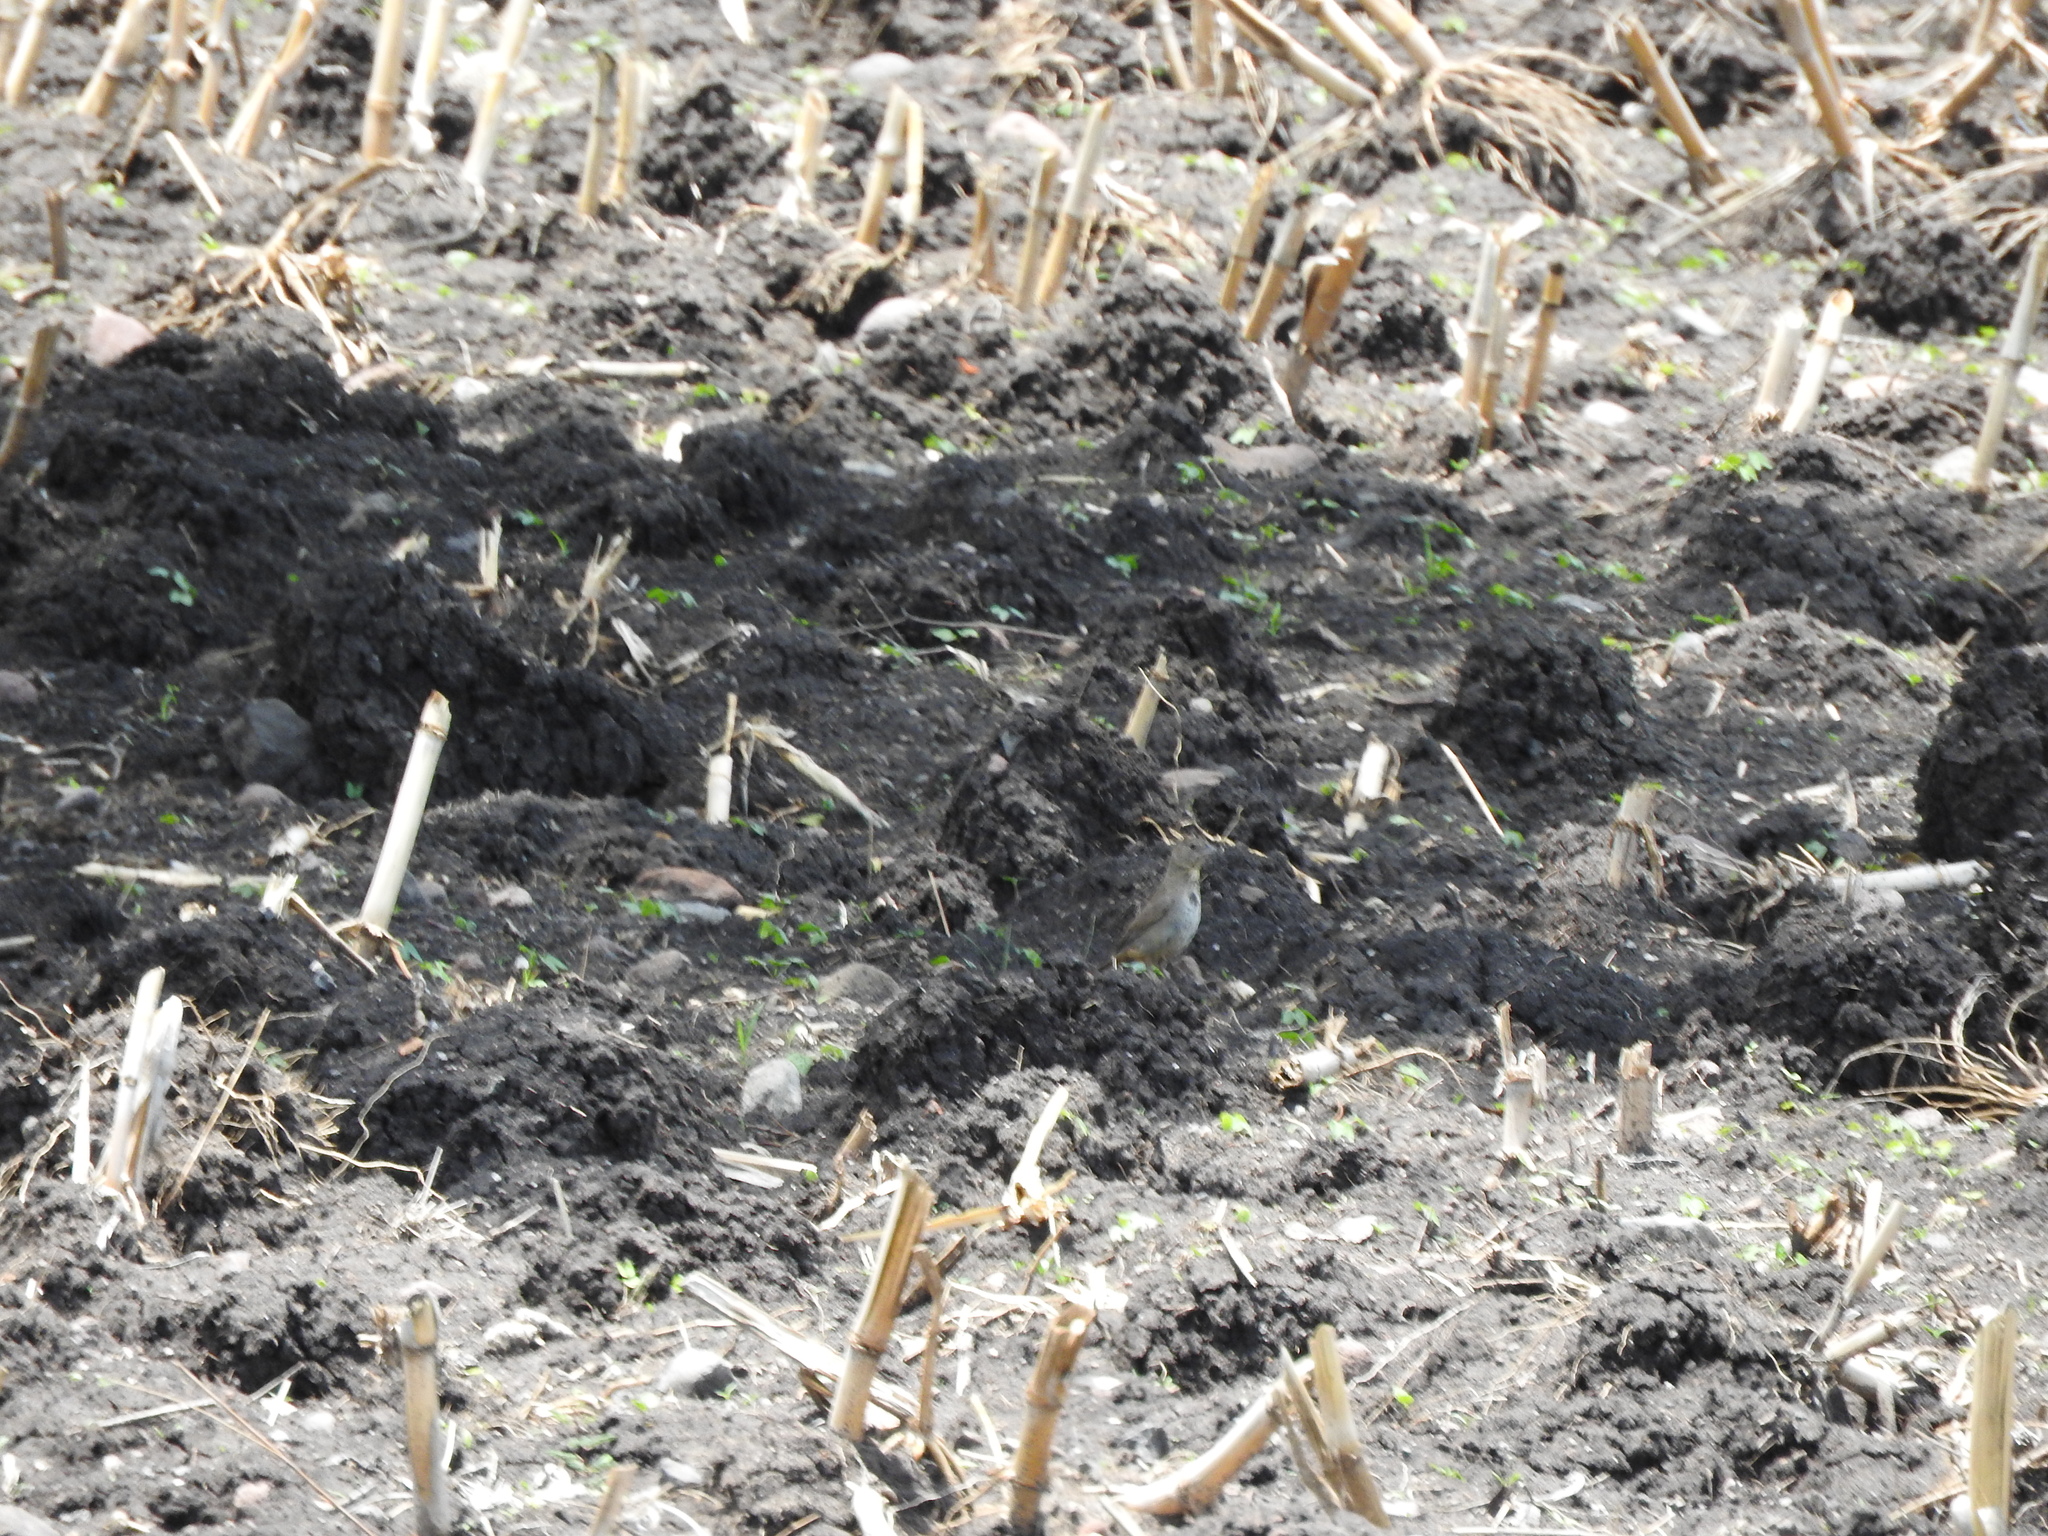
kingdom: Animalia
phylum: Chordata
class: Aves
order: Passeriformes
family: Passerellidae
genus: Melozone
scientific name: Melozone fusca
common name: Canyon towhee
